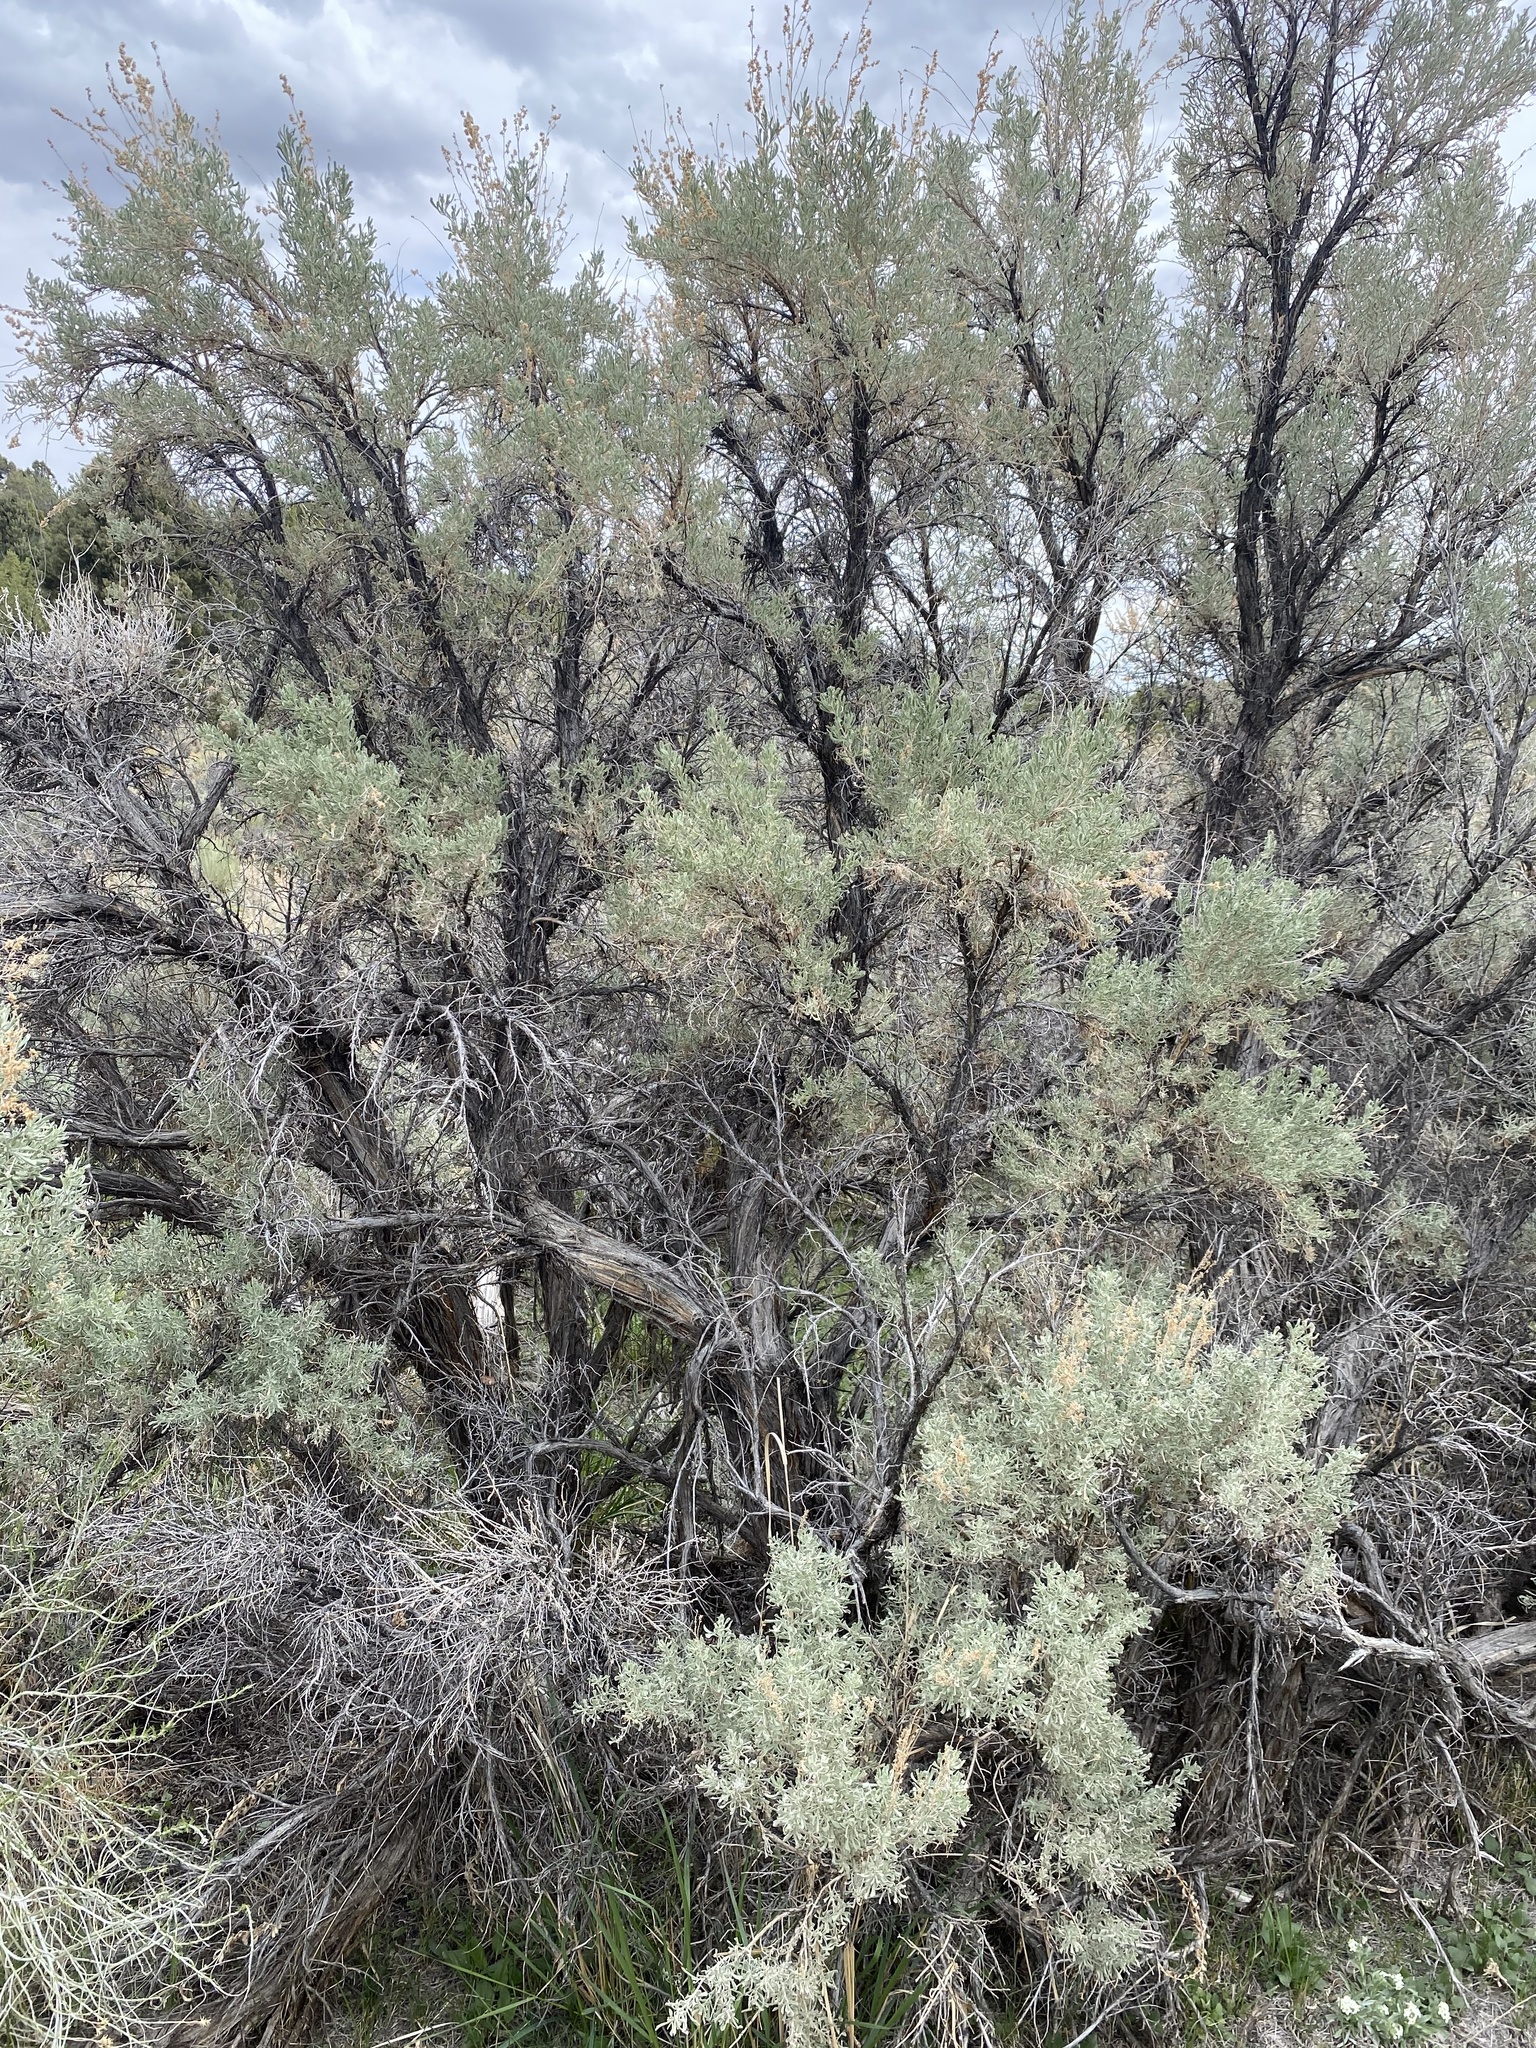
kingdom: Plantae
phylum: Tracheophyta
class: Magnoliopsida
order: Asterales
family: Asteraceae
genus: Artemisia
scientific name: Artemisia tridentata
